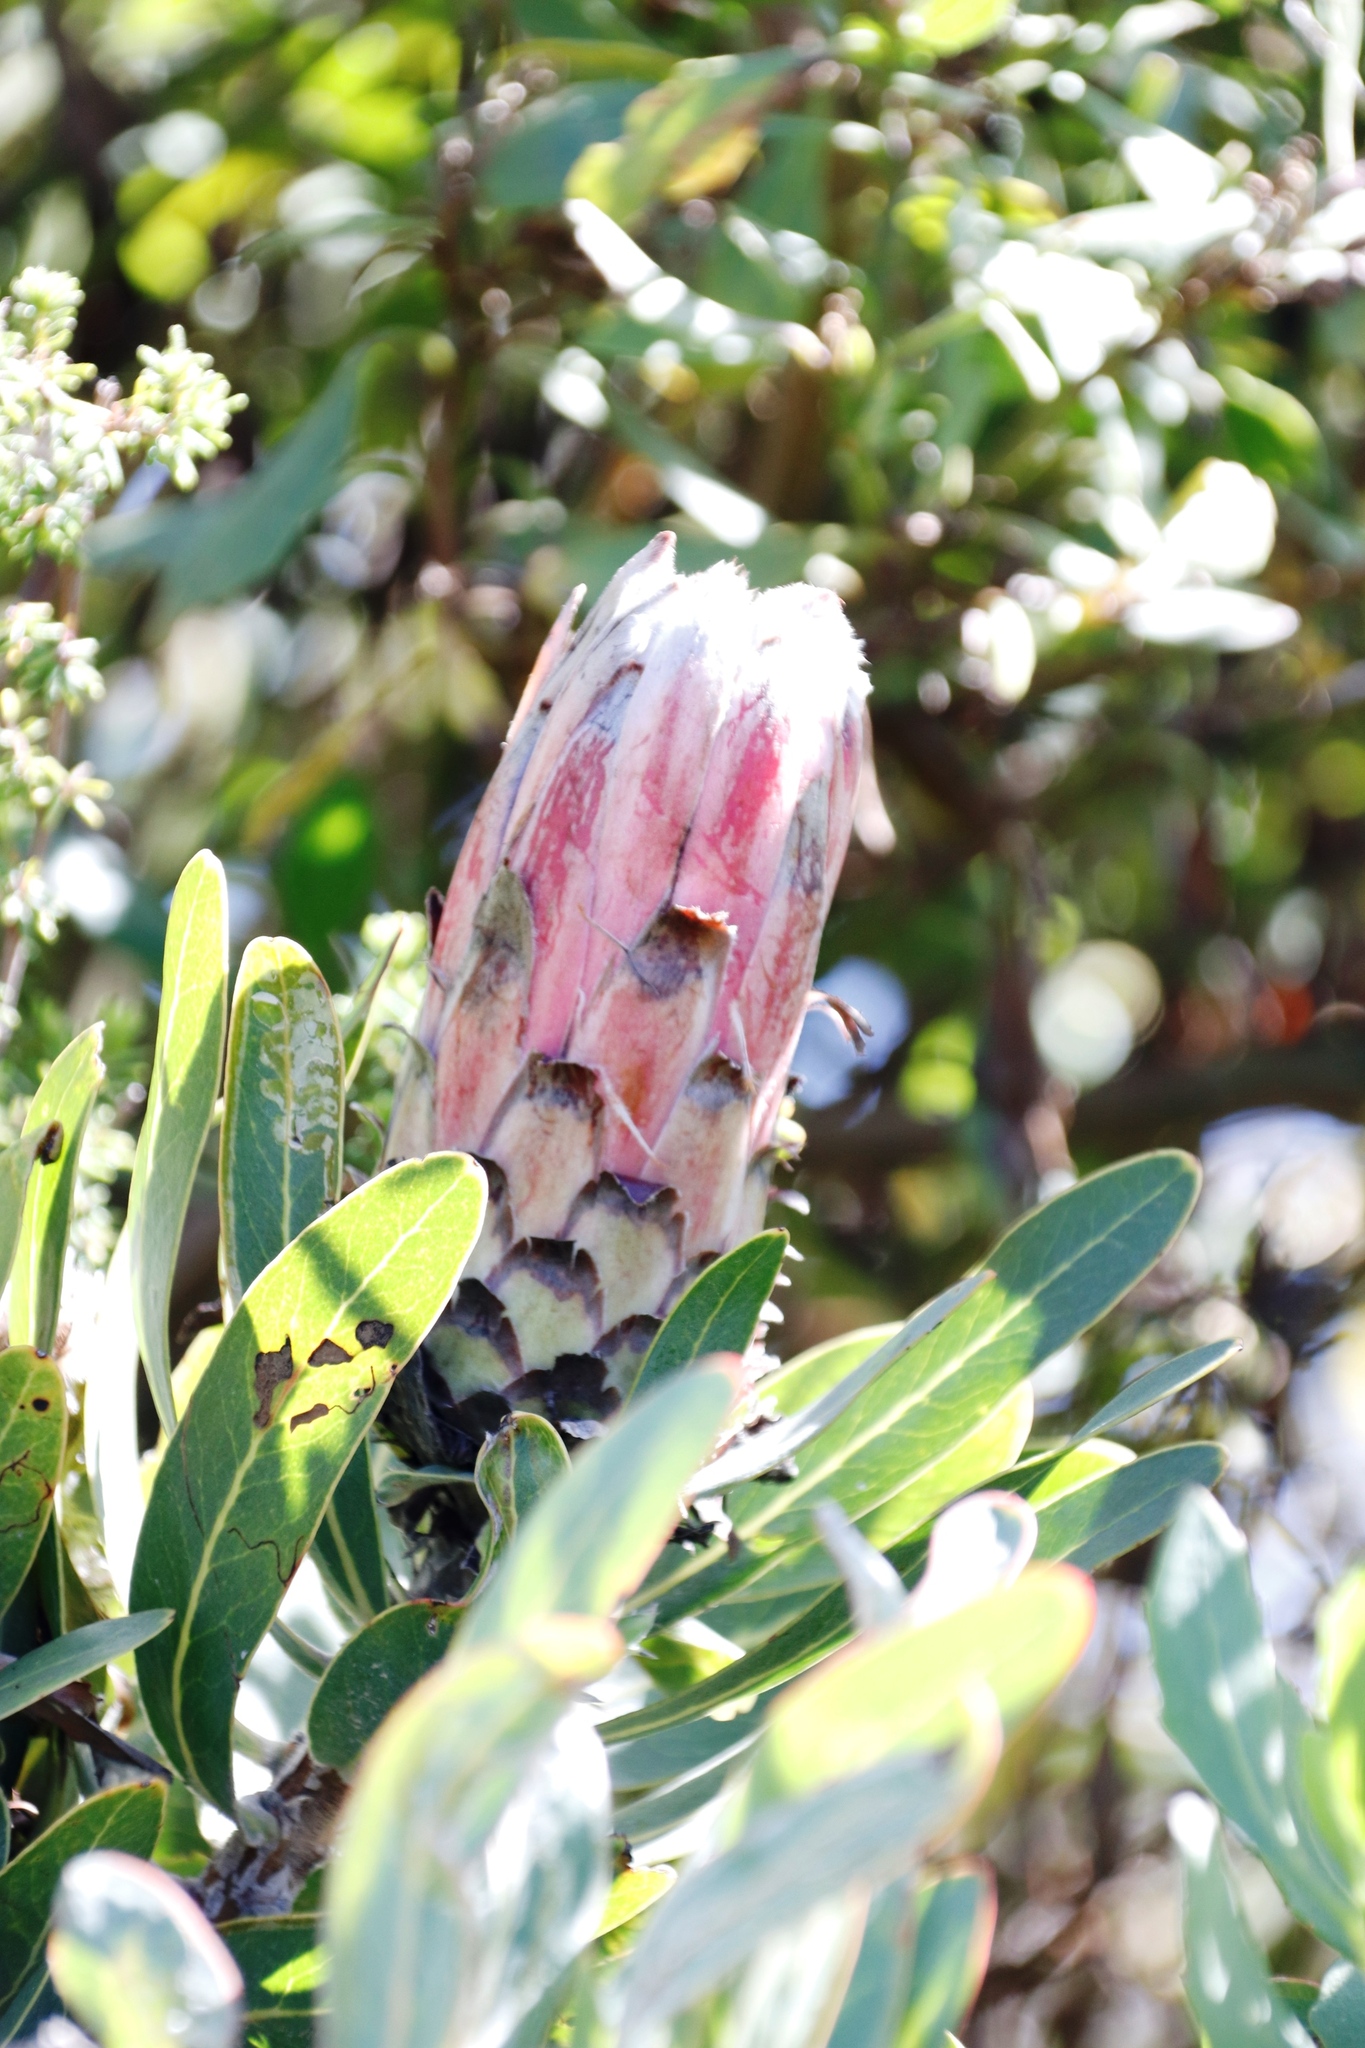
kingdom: Plantae
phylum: Tracheophyta
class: Magnoliopsida
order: Proteales
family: Proteaceae
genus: Protea
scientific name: Protea
